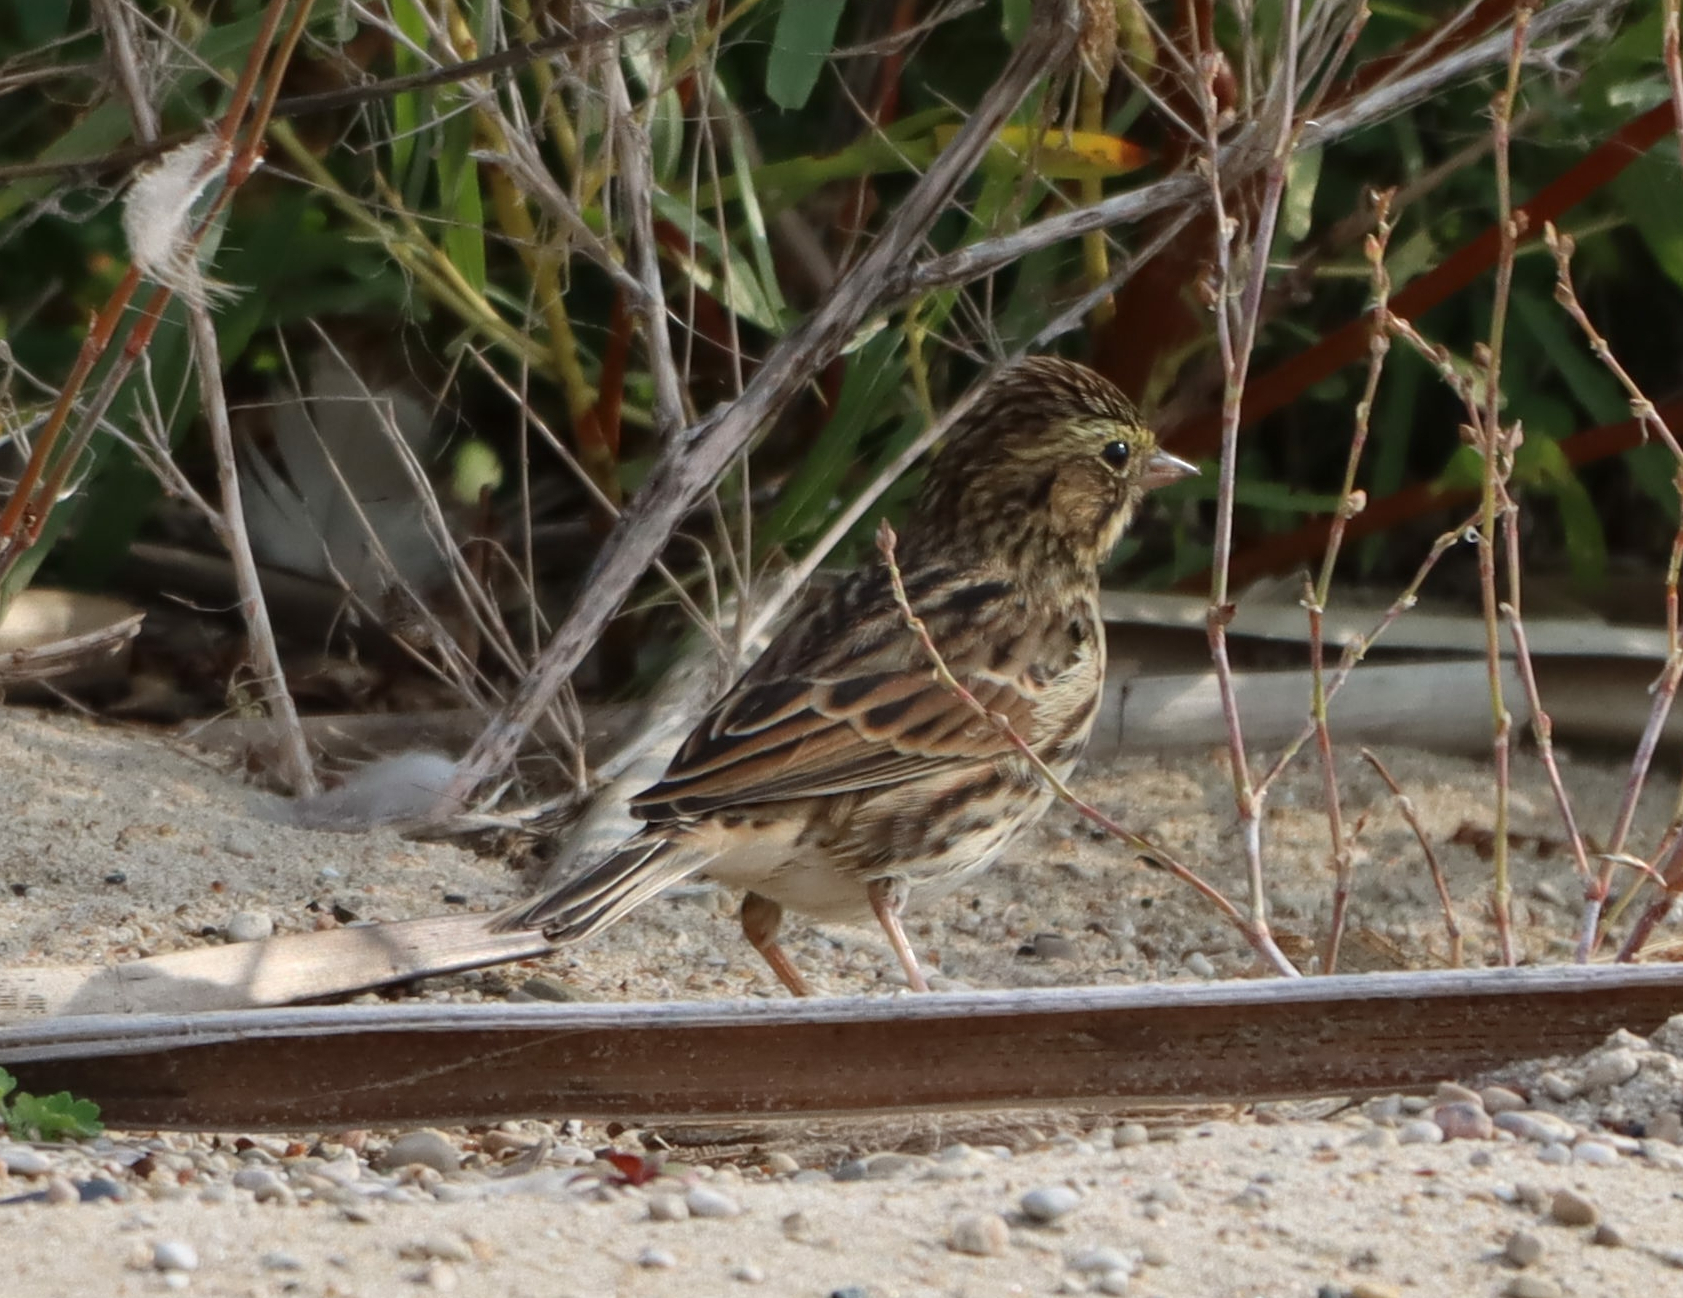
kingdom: Animalia
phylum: Chordata
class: Aves
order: Passeriformes
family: Passerellidae
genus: Passerculus
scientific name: Passerculus sandwichensis
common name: Savannah sparrow
